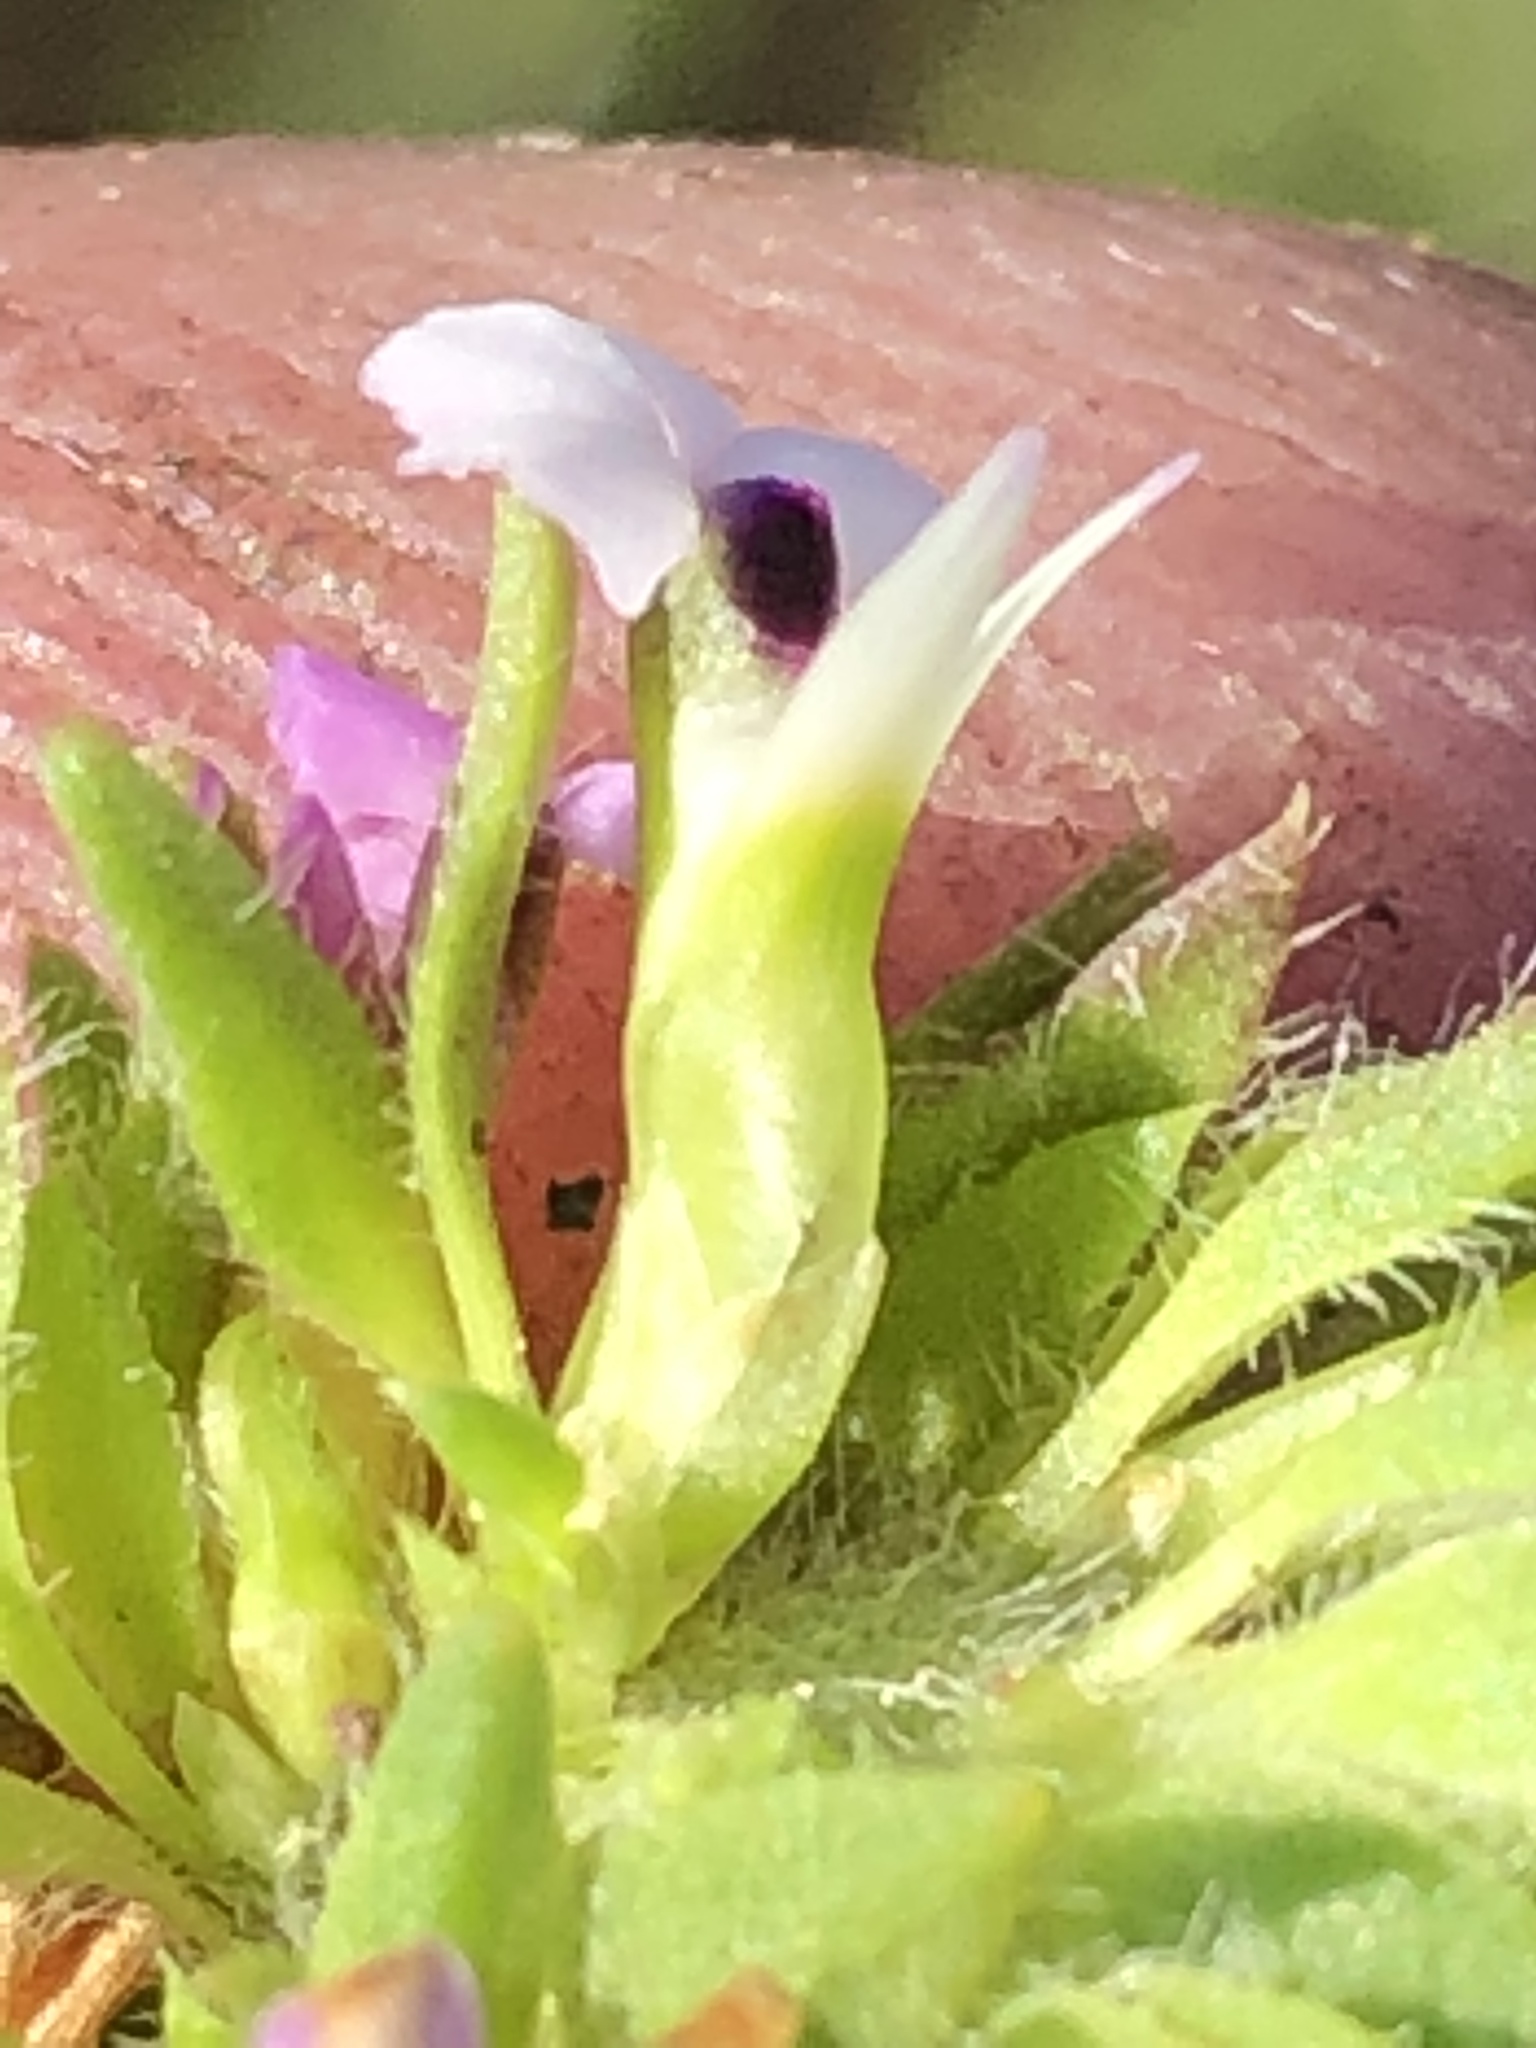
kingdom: Plantae
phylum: Tracheophyta
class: Magnoliopsida
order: Fabales
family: Polygalaceae
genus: Muraltia
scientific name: Muraltia alopecuroides
